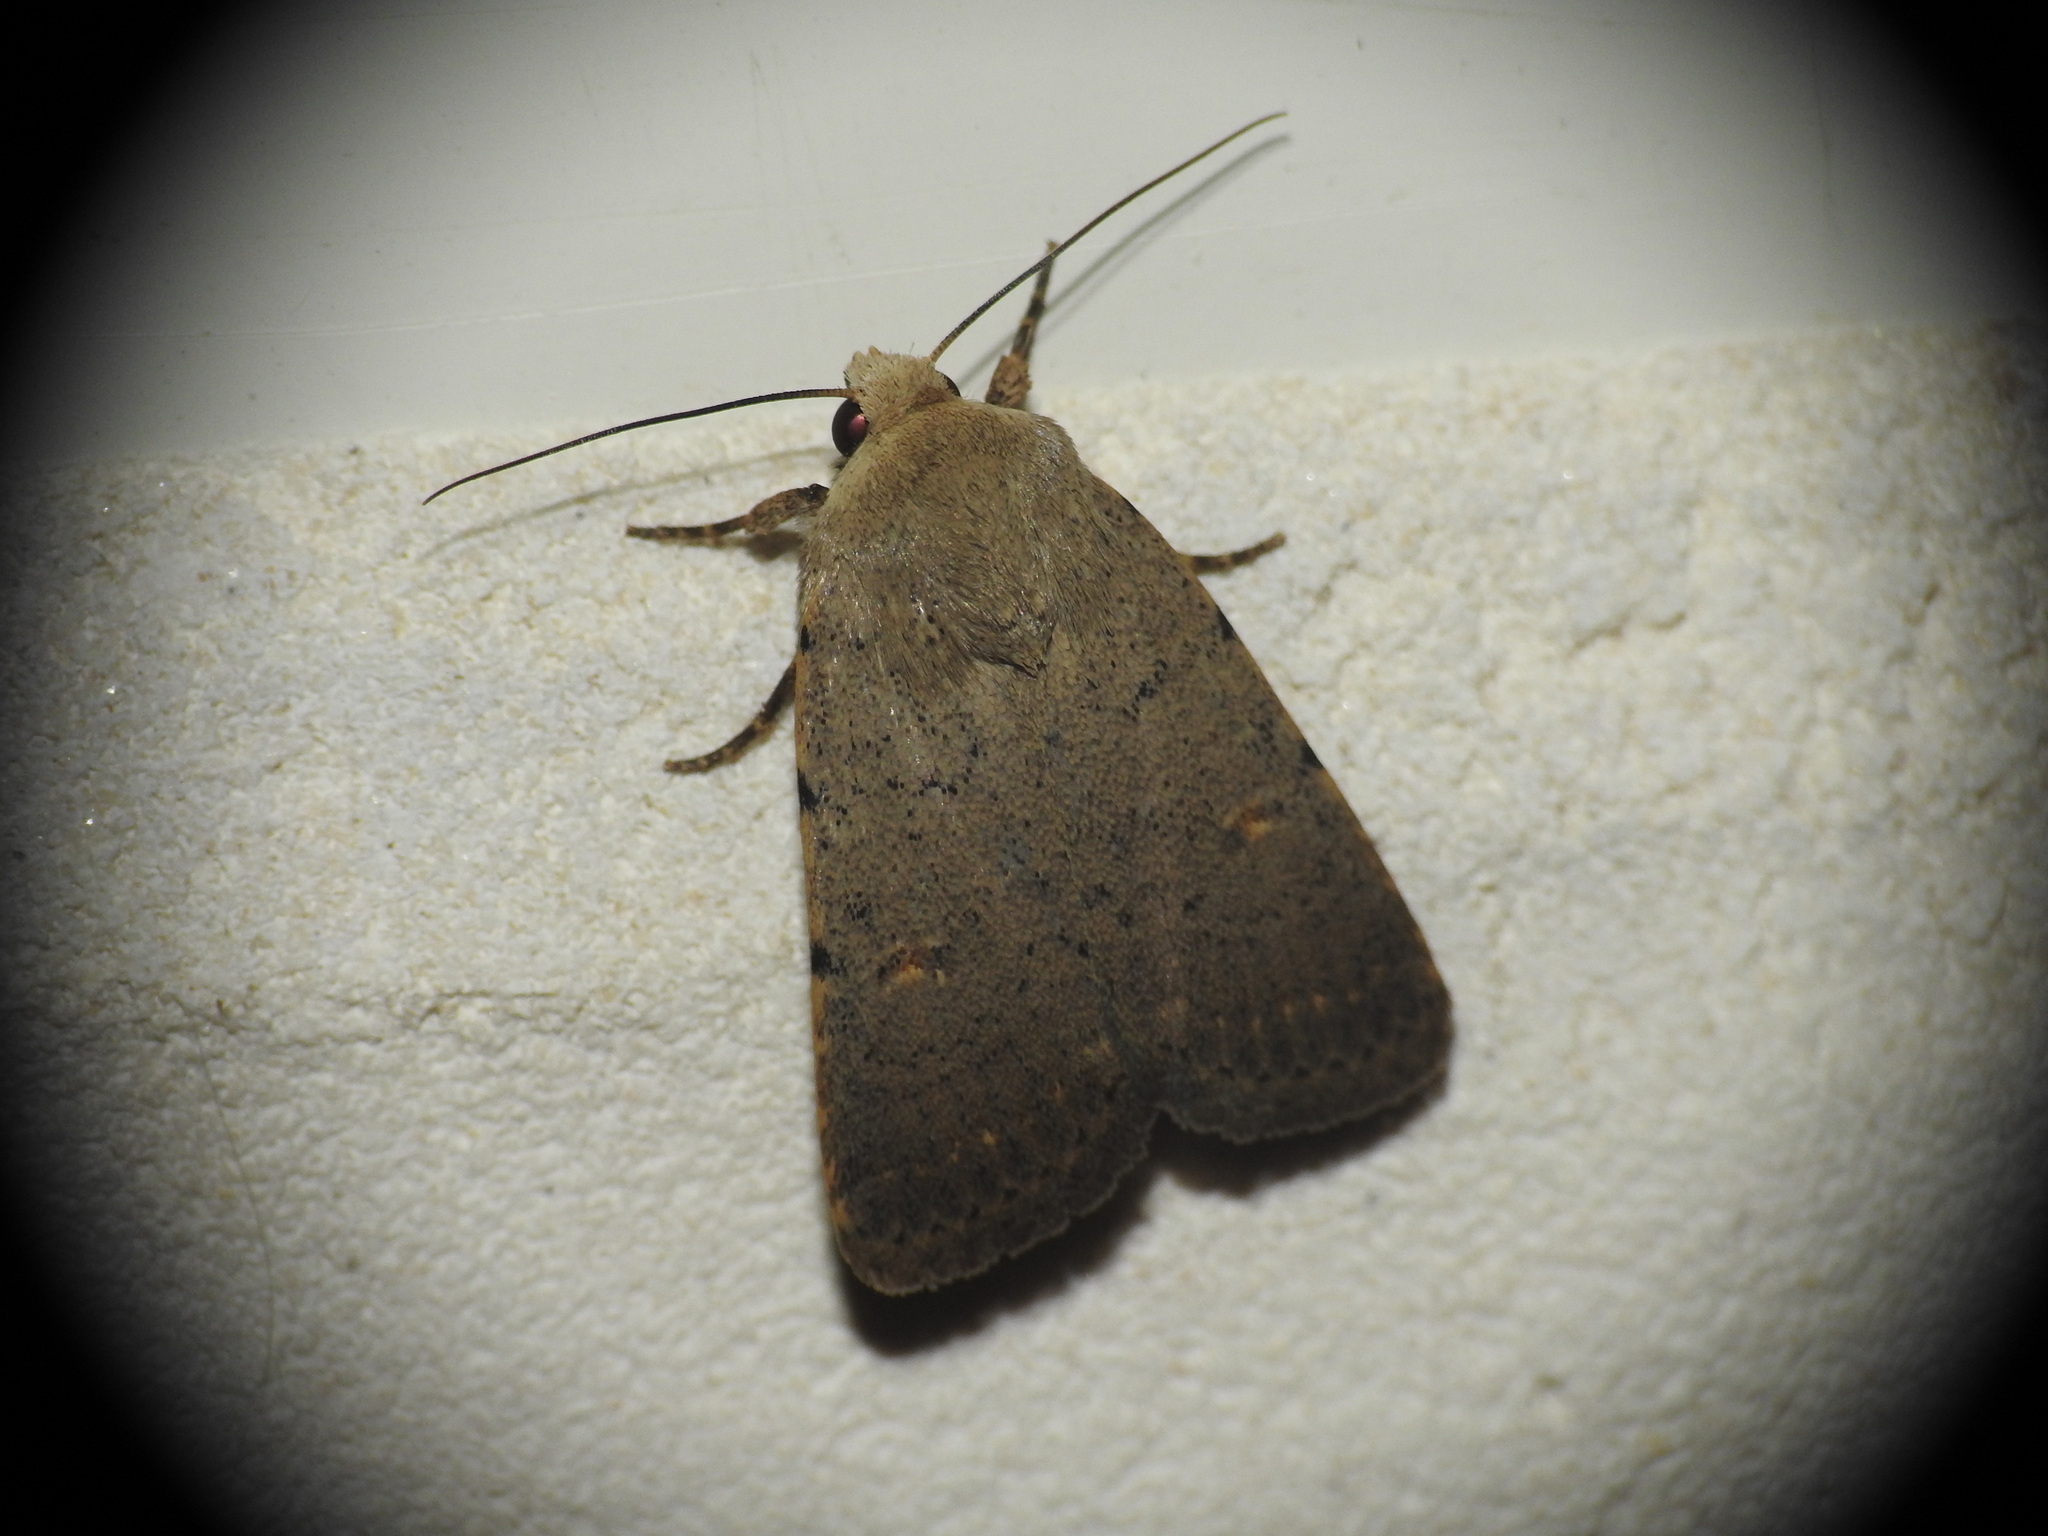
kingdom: Animalia
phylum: Arthropoda
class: Insecta
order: Lepidoptera
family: Noctuidae
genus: Caradrina
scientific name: Caradrina aspersa
